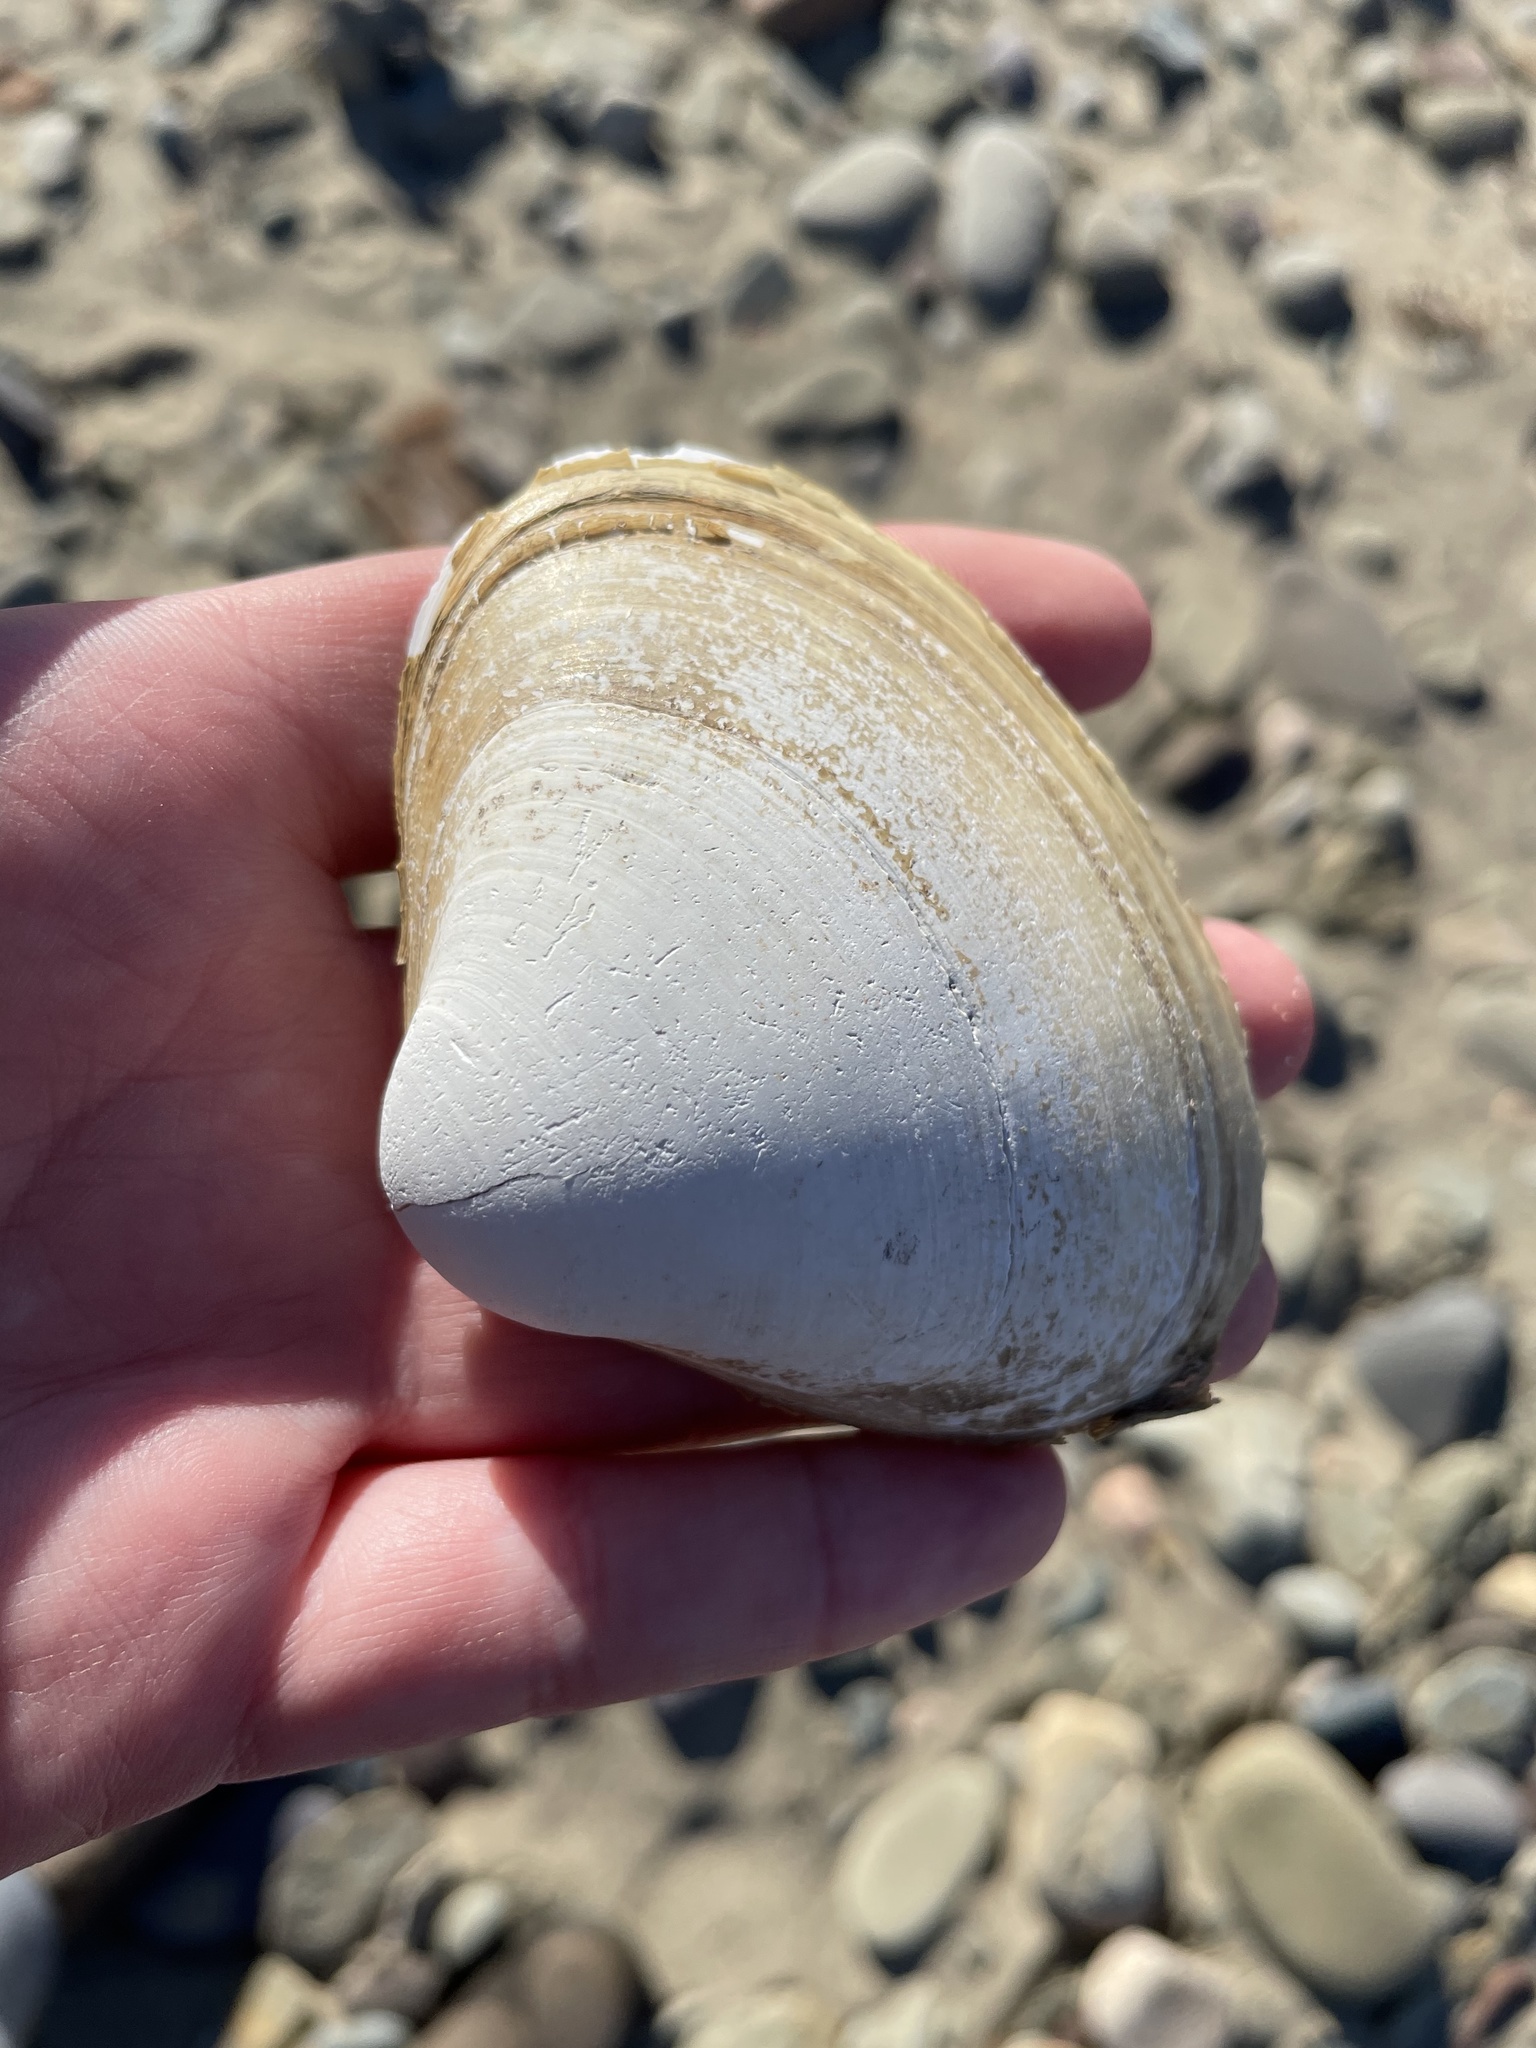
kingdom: Animalia
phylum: Mollusca
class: Bivalvia
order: Venerida
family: Mactridae
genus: Spisula
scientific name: Spisula solidissima
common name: Atlantic surf clam
